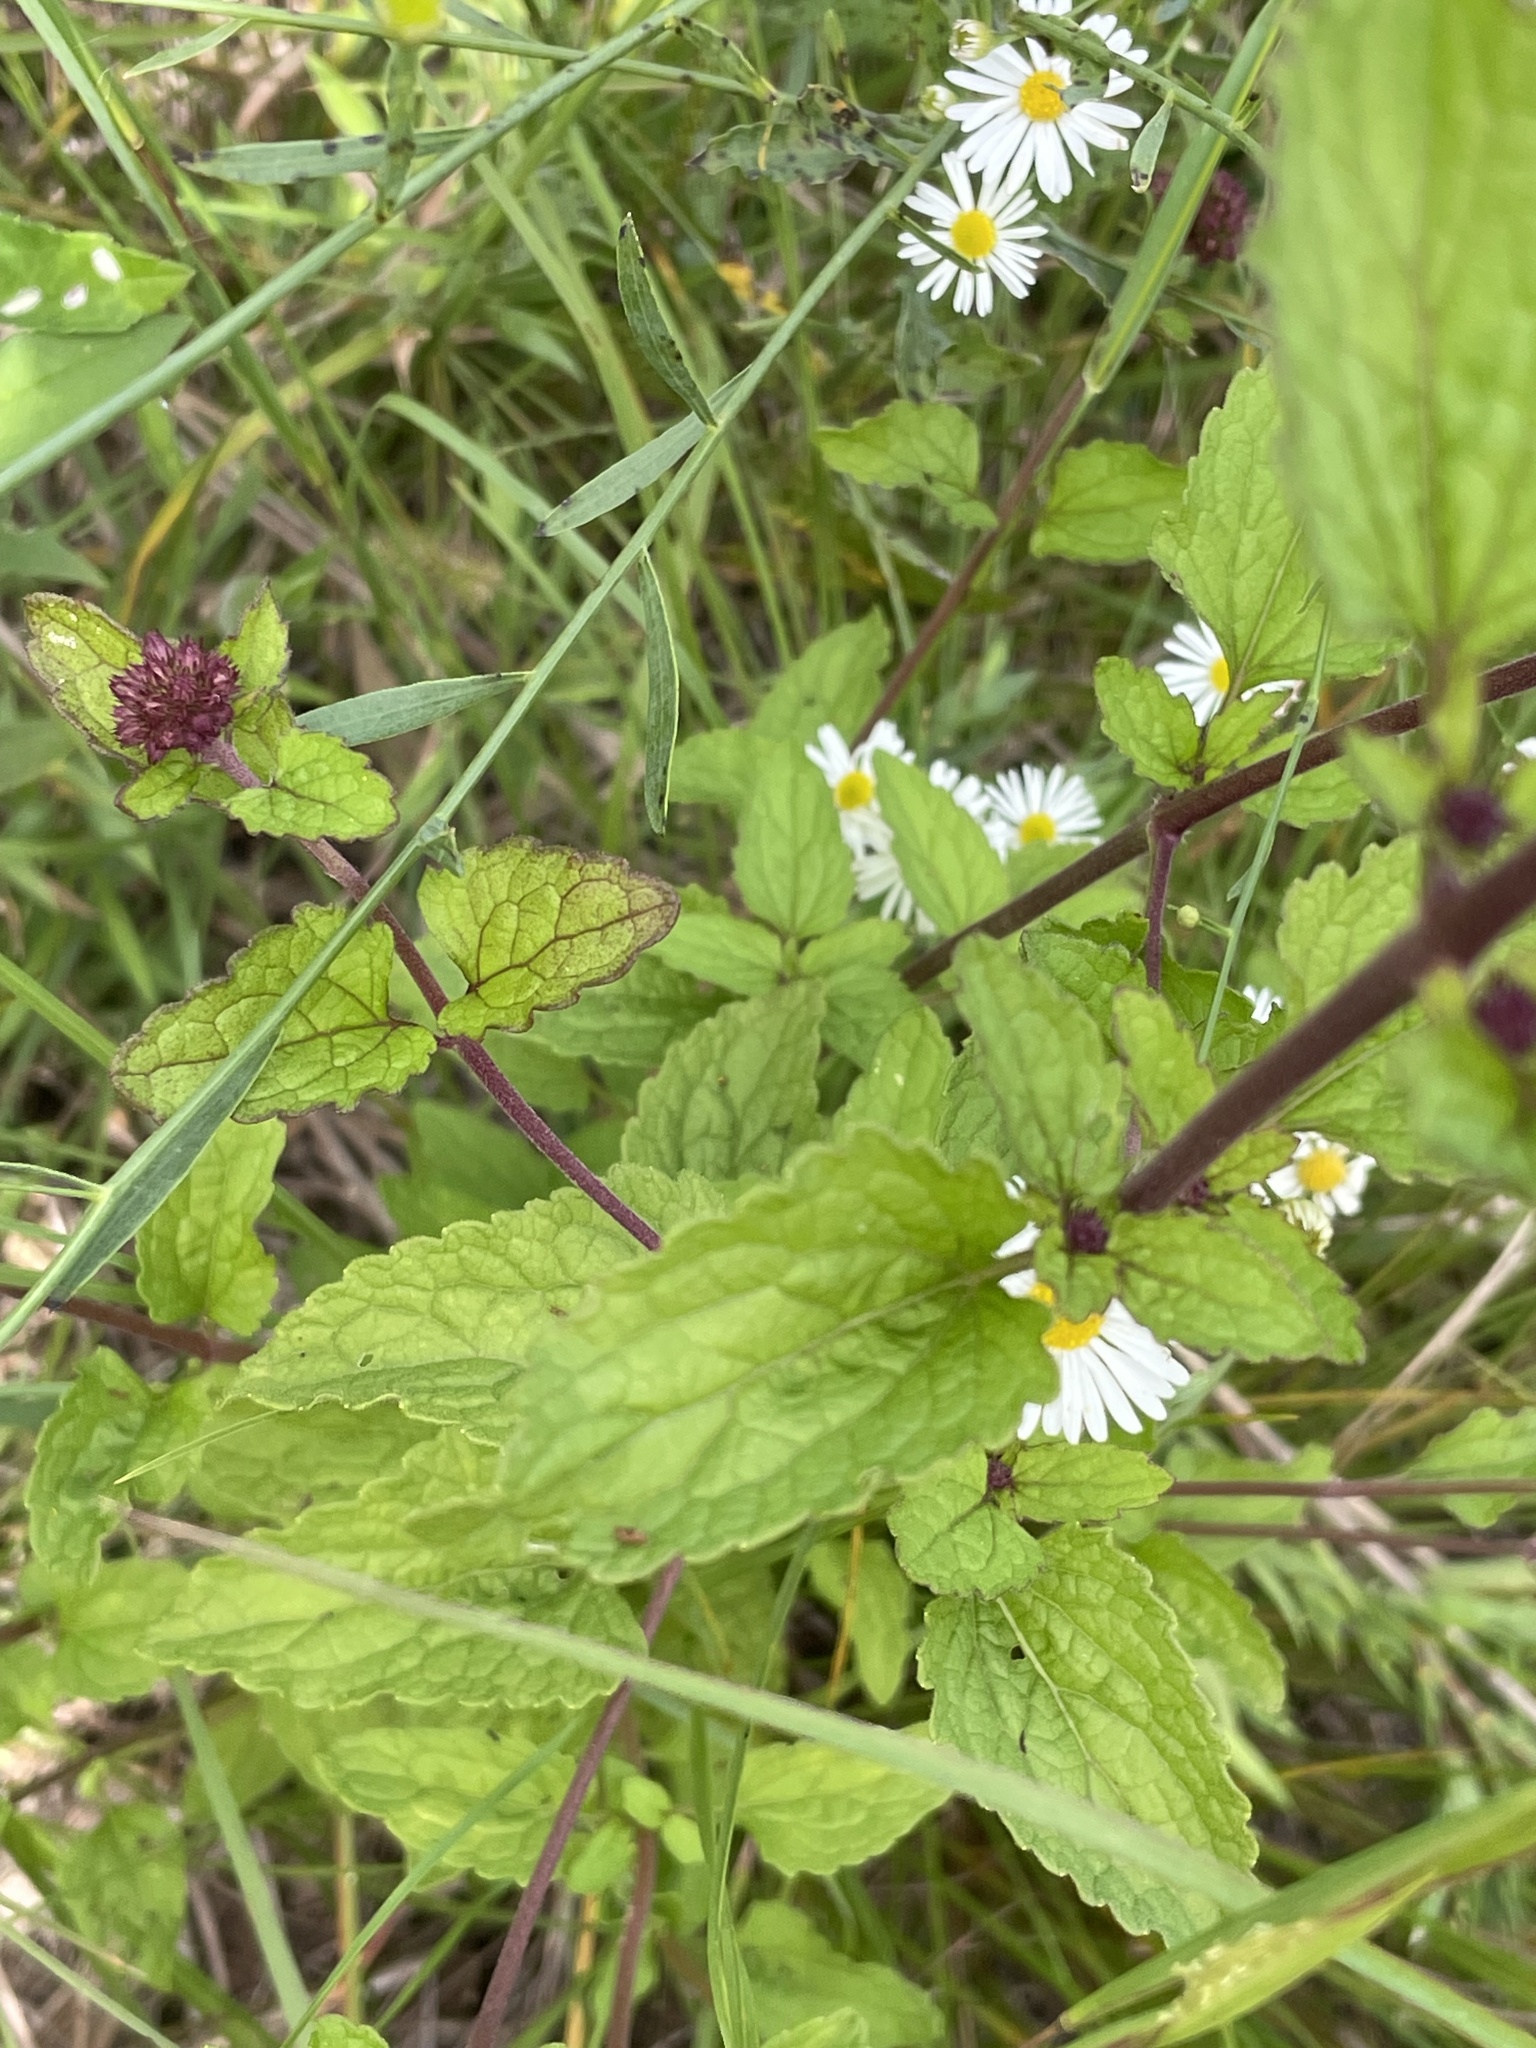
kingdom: Plantae
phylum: Tracheophyta
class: Magnoliopsida
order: Asterales
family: Asteraceae
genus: Conoclinium
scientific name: Conoclinium coelestinum
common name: Blue mistflower
